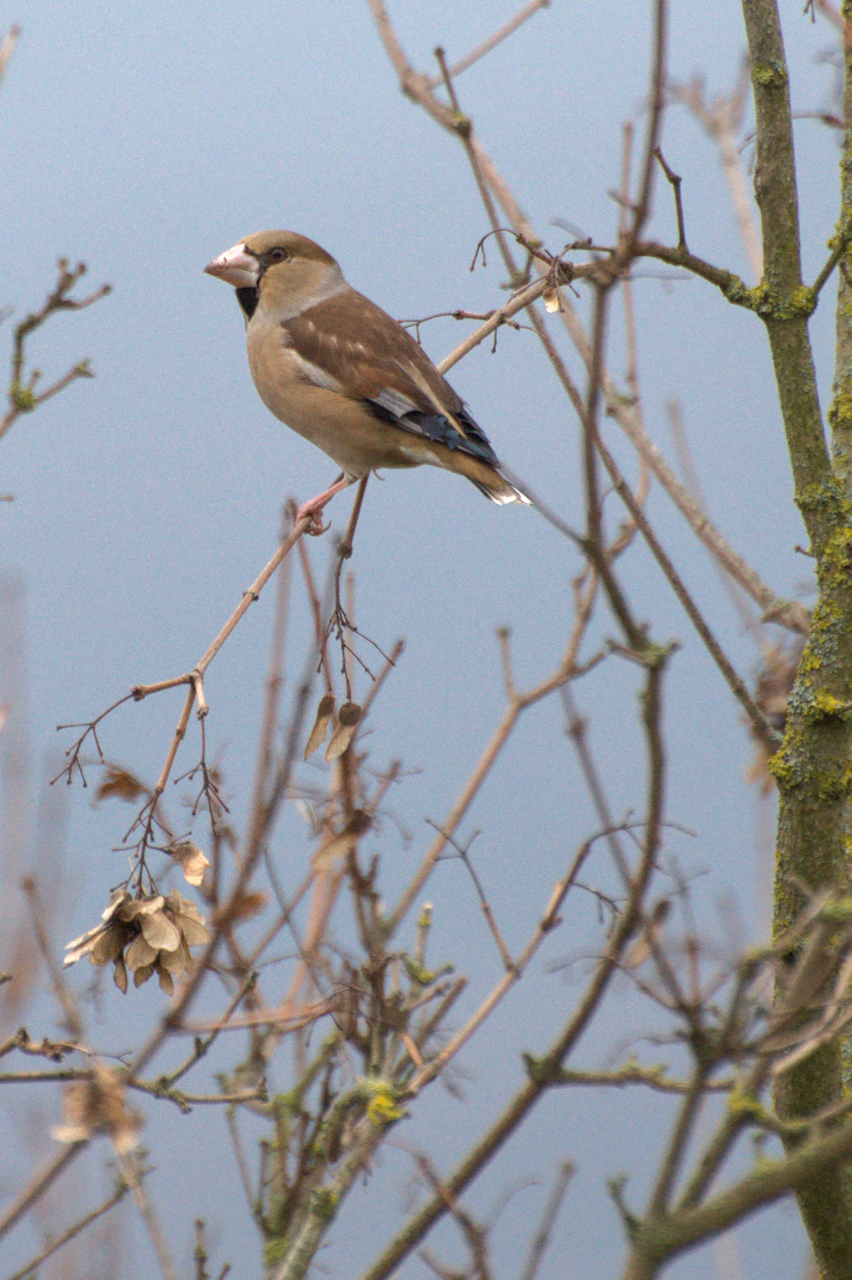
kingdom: Animalia
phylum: Chordata
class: Aves
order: Passeriformes
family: Fringillidae
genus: Coccothraustes
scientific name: Coccothraustes coccothraustes
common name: Hawfinch
